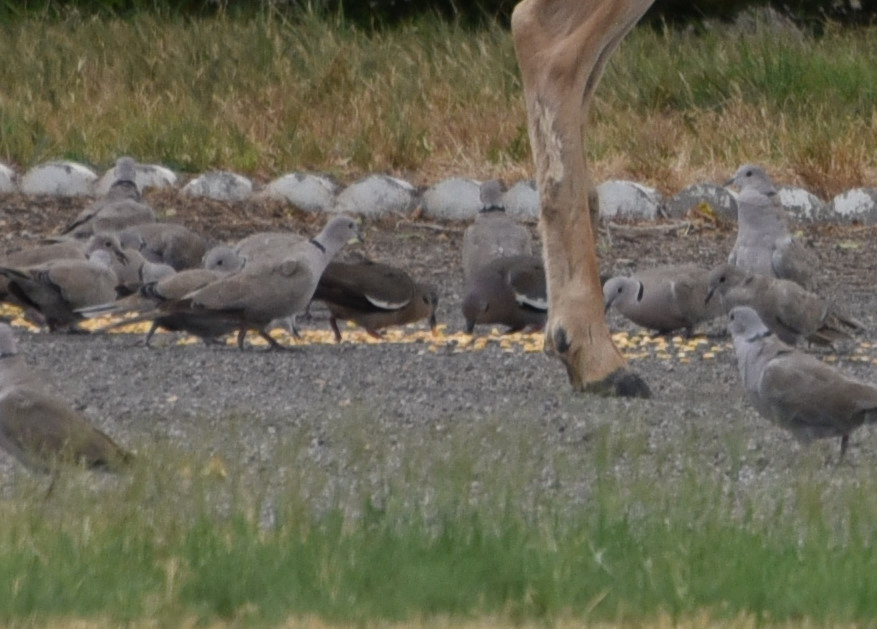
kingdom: Animalia
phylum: Chordata
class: Aves
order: Columbiformes
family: Columbidae
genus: Zenaida
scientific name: Zenaida asiatica
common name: White-winged dove
